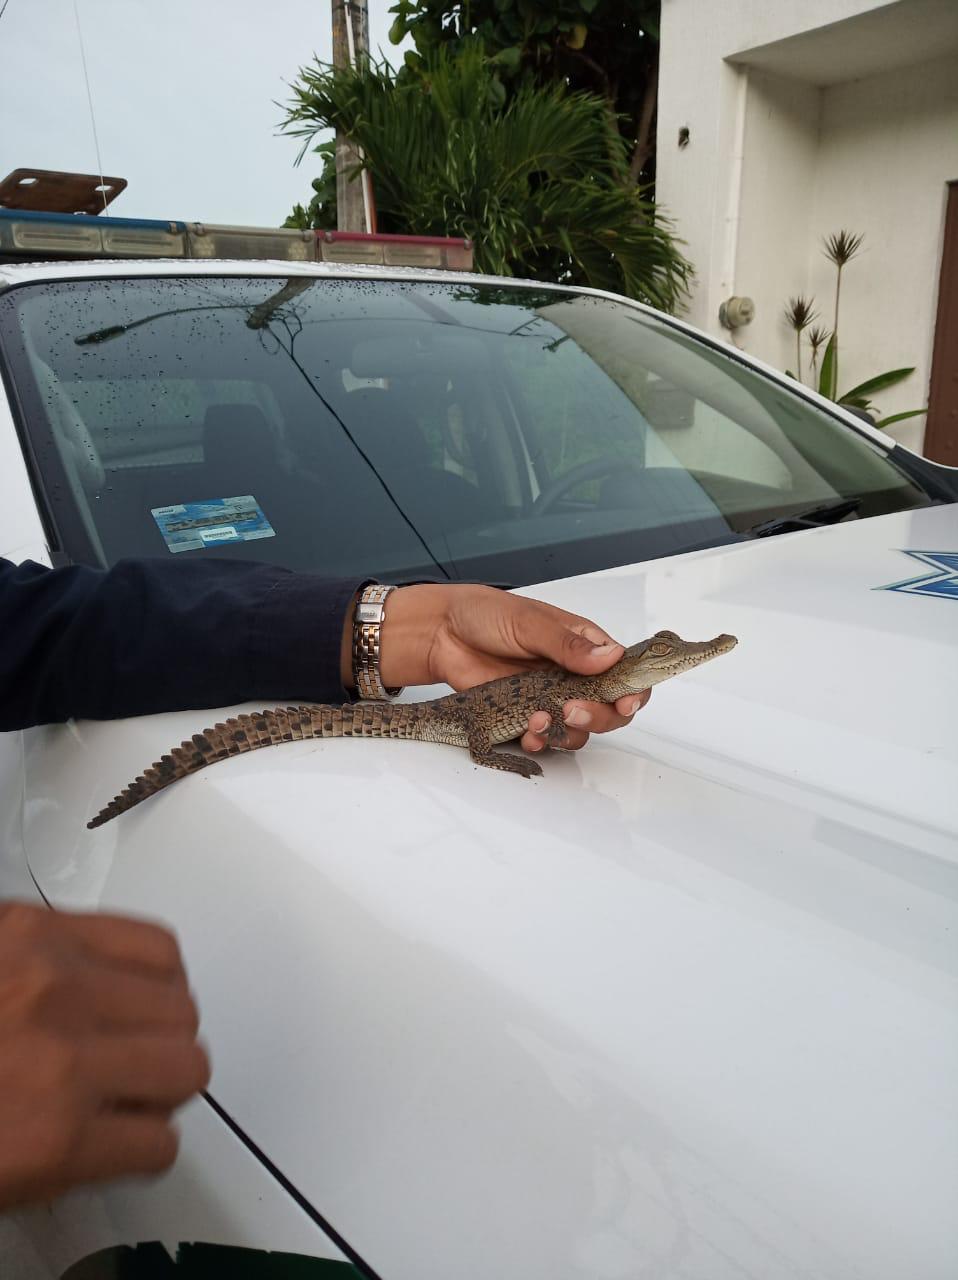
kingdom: Animalia
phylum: Chordata
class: Crocodylia
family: Crocodylidae
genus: Crocodylus
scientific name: Crocodylus acutus
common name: American crocodile
